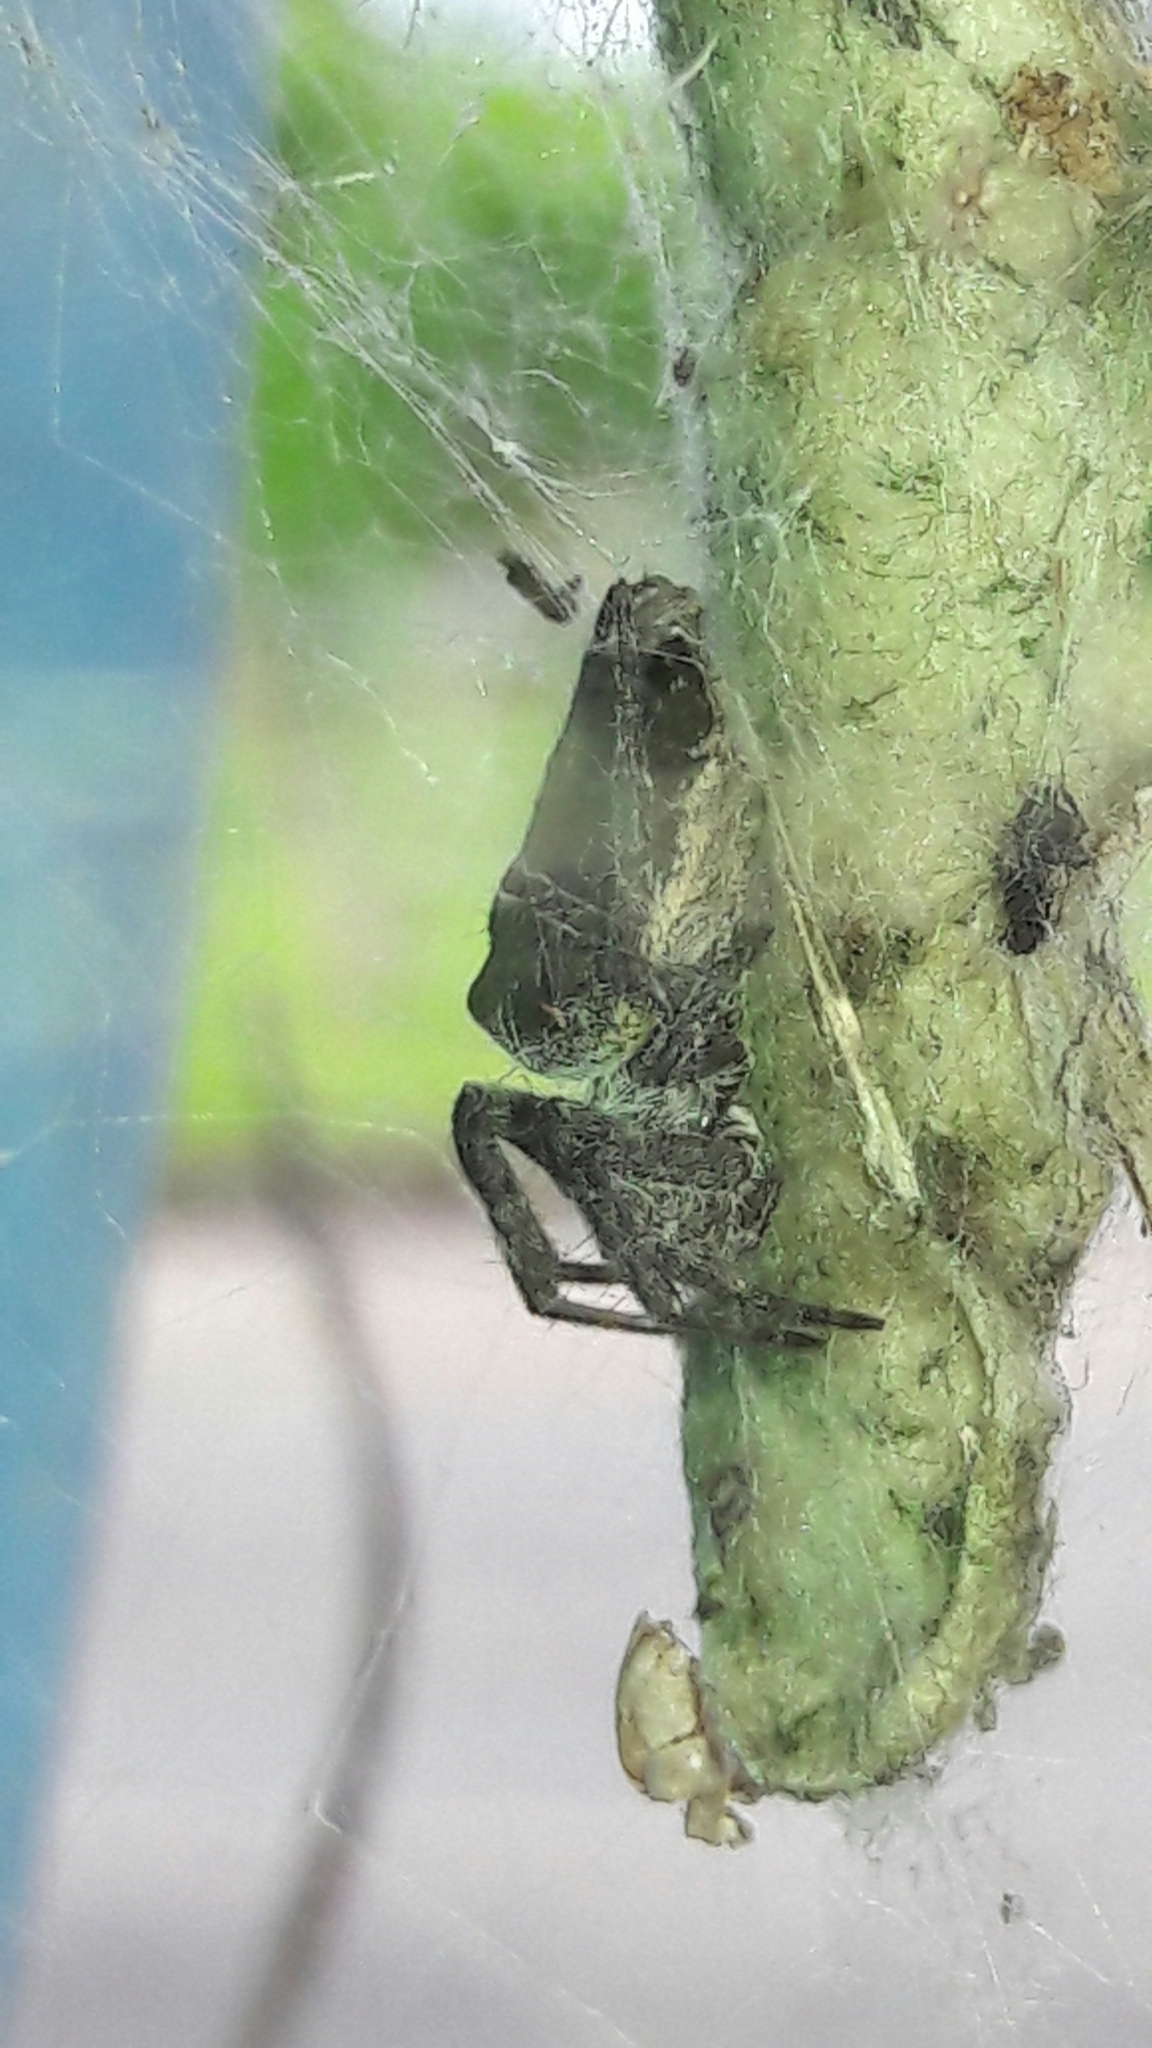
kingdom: Animalia
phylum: Arthropoda
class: Arachnida
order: Araneae
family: Araneidae
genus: Cyrtophora
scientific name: Cyrtophora citricola
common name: Orb weavers
